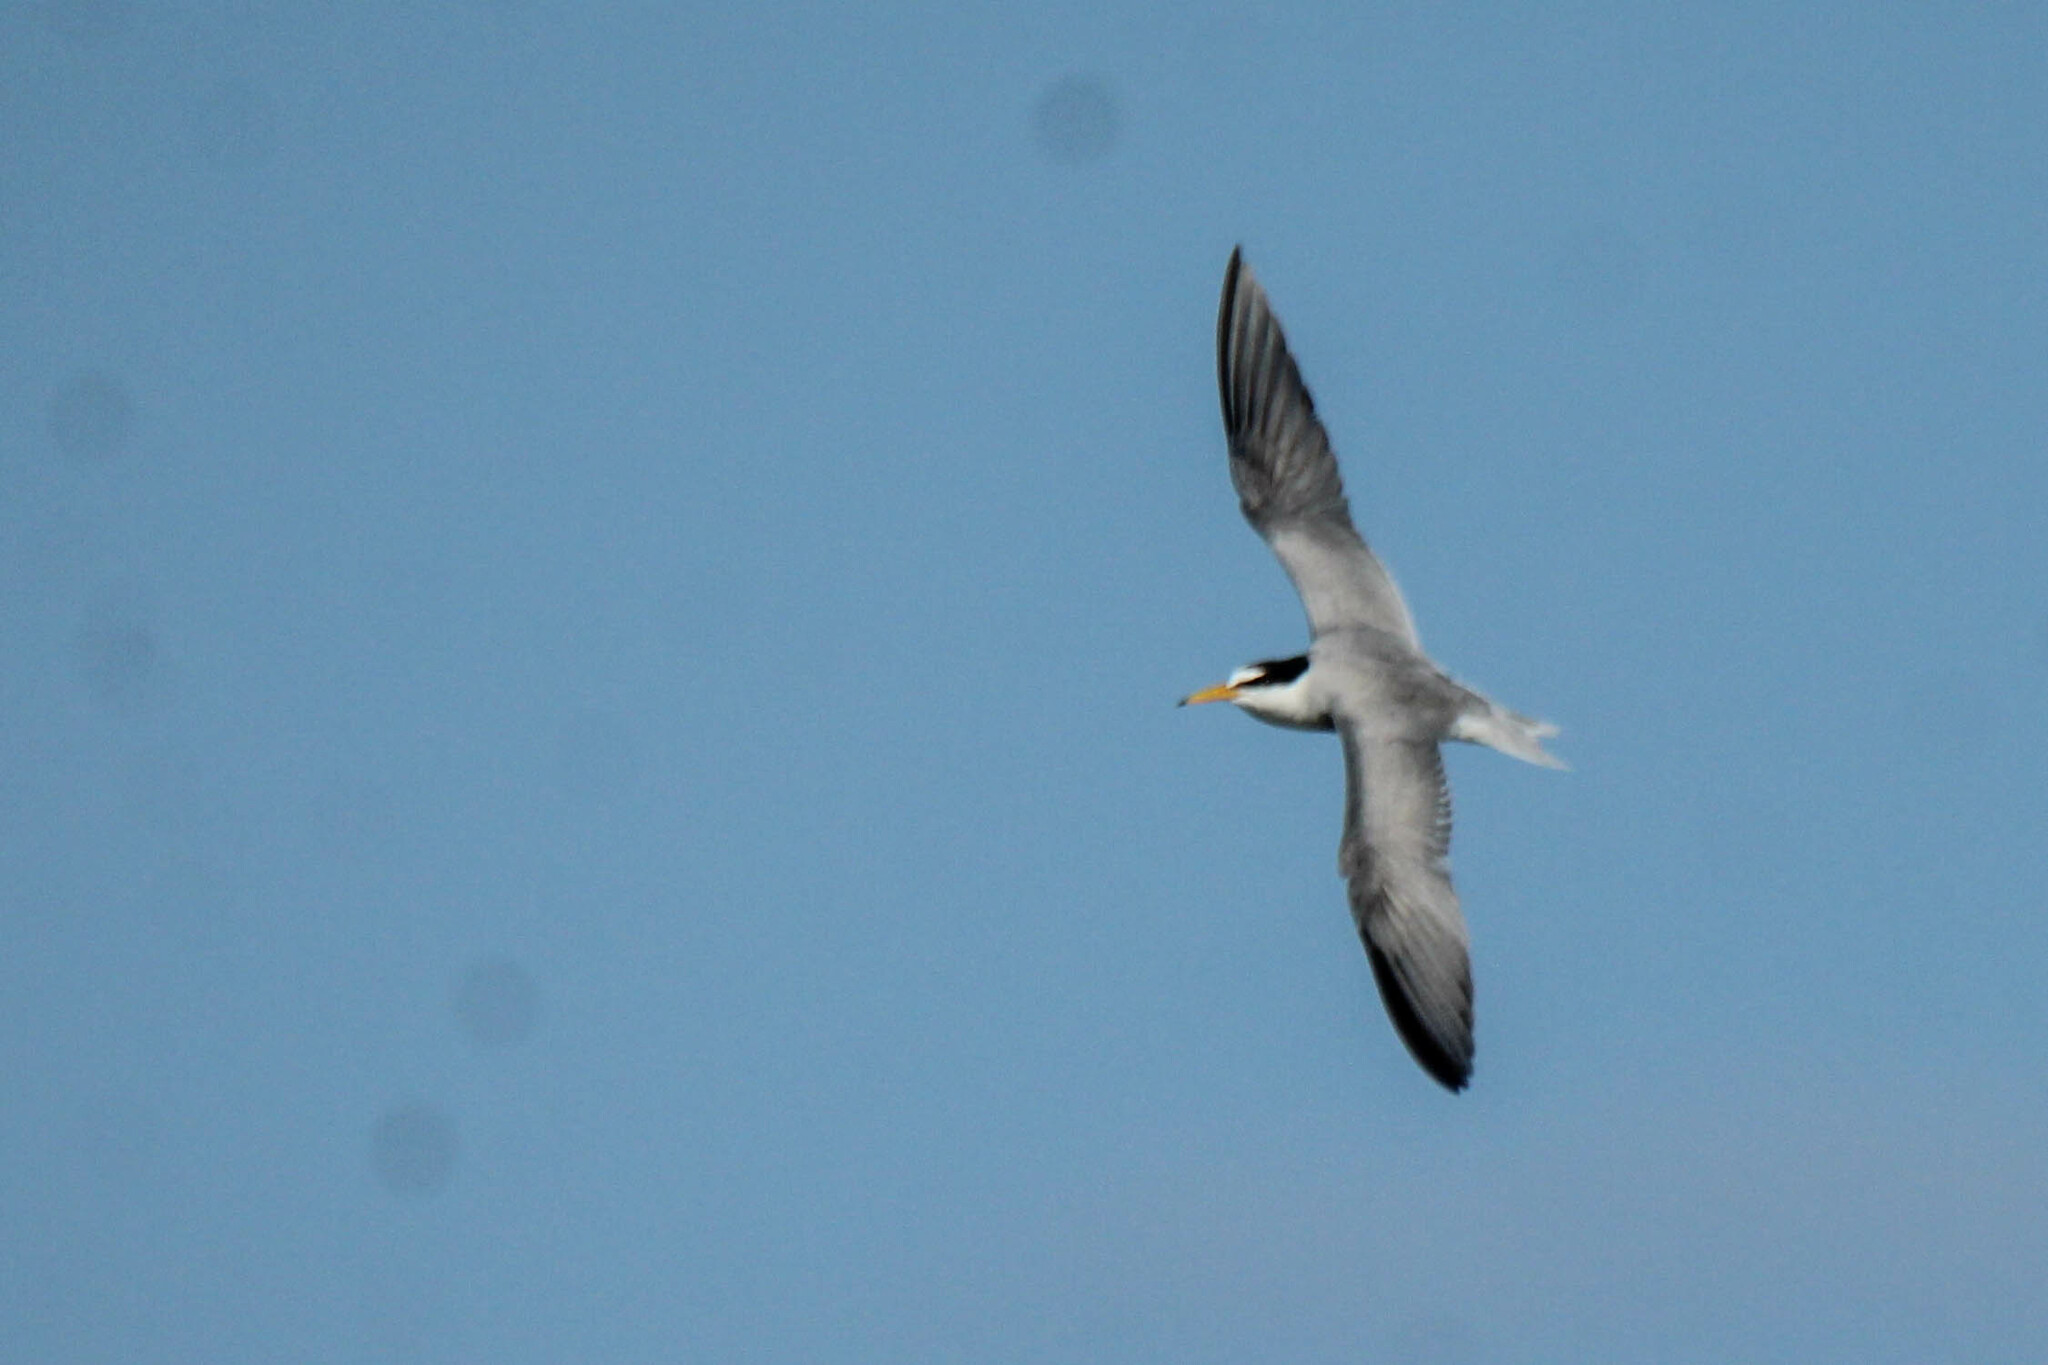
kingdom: Animalia
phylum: Chordata
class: Aves
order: Charadriiformes
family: Laridae
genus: Sternula
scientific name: Sternula albifrons
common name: Little tern
